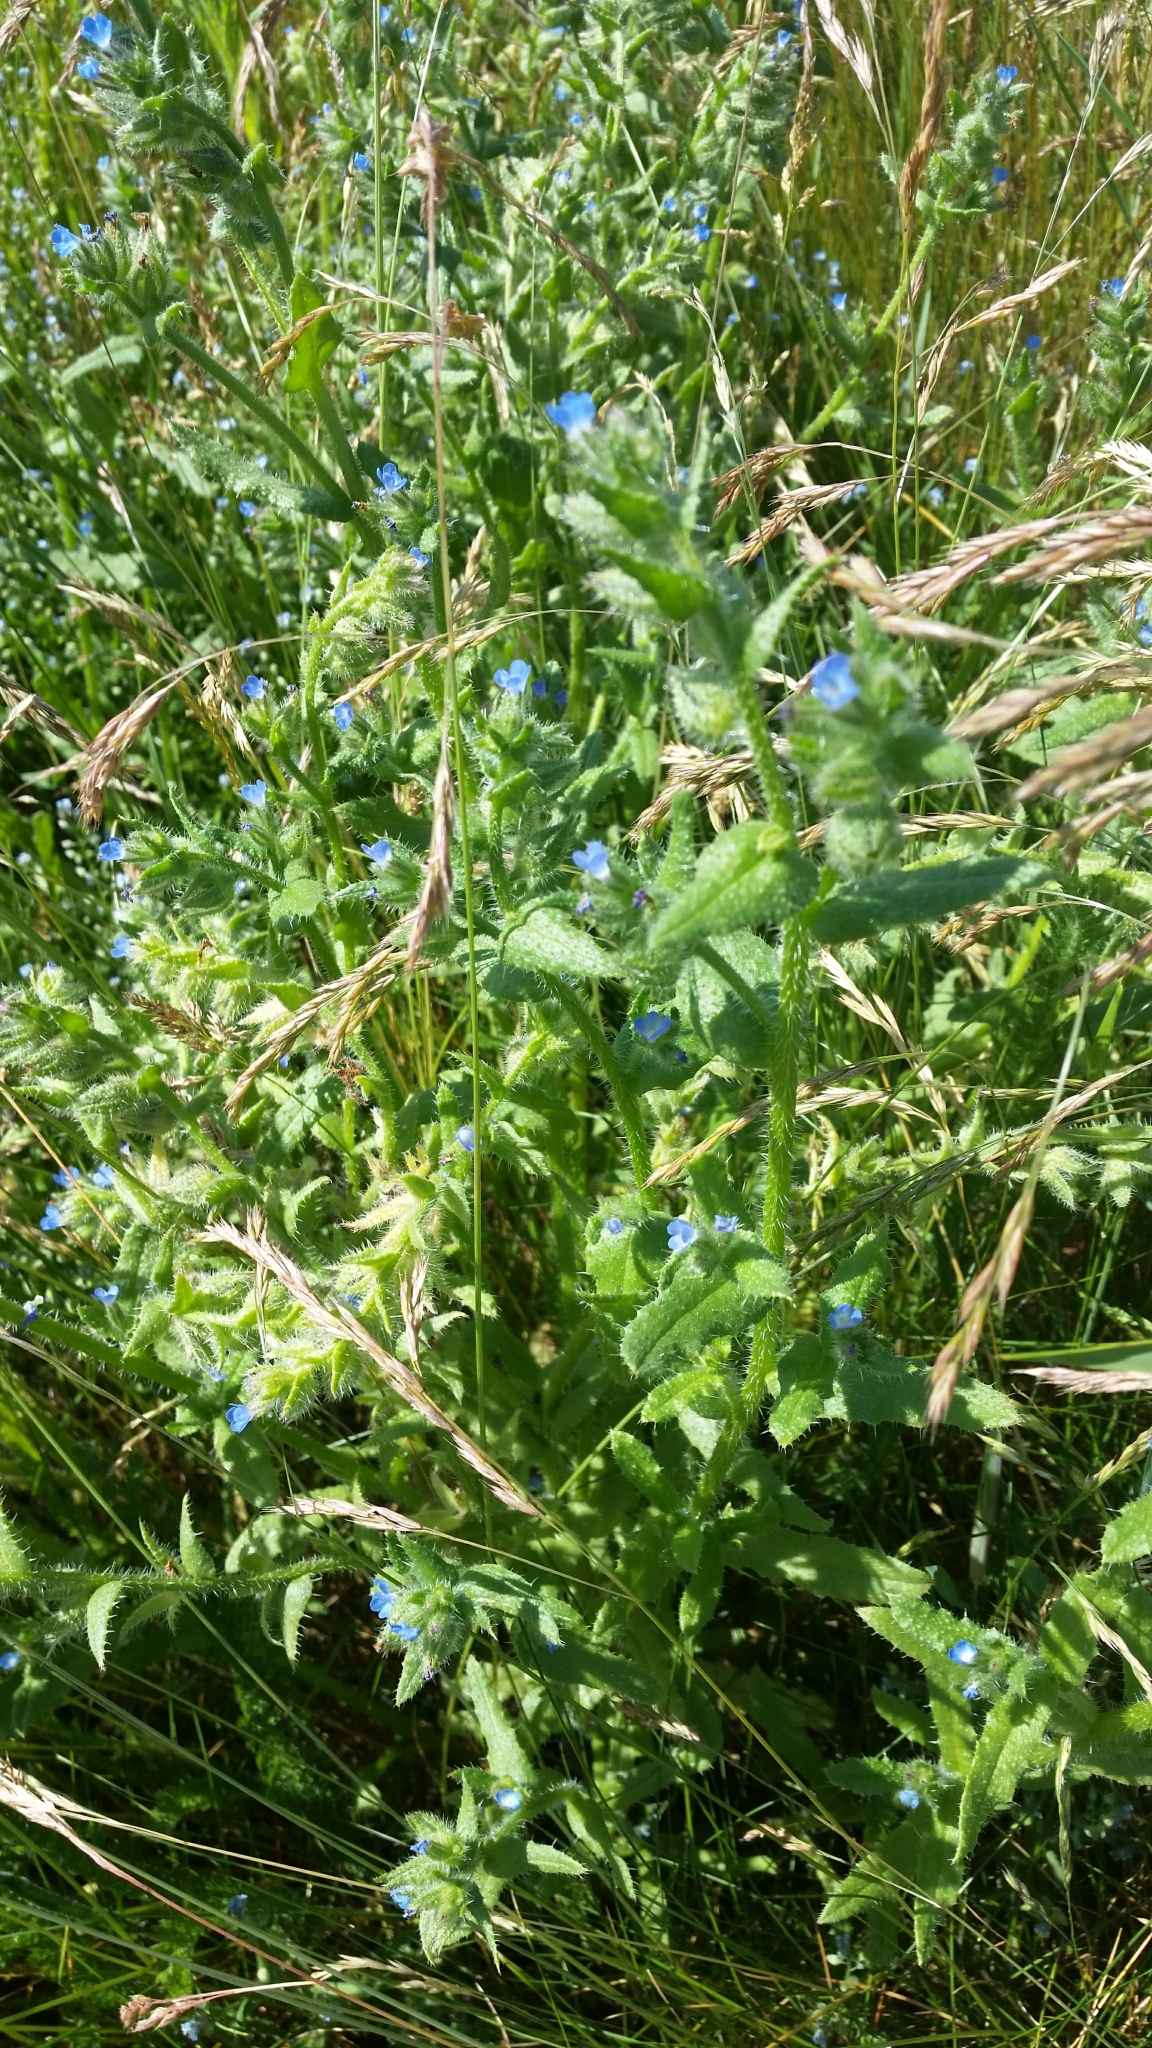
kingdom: Plantae
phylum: Tracheophyta
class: Magnoliopsida
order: Boraginales
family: Boraginaceae
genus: Lycopsis
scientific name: Lycopsis arvensis
